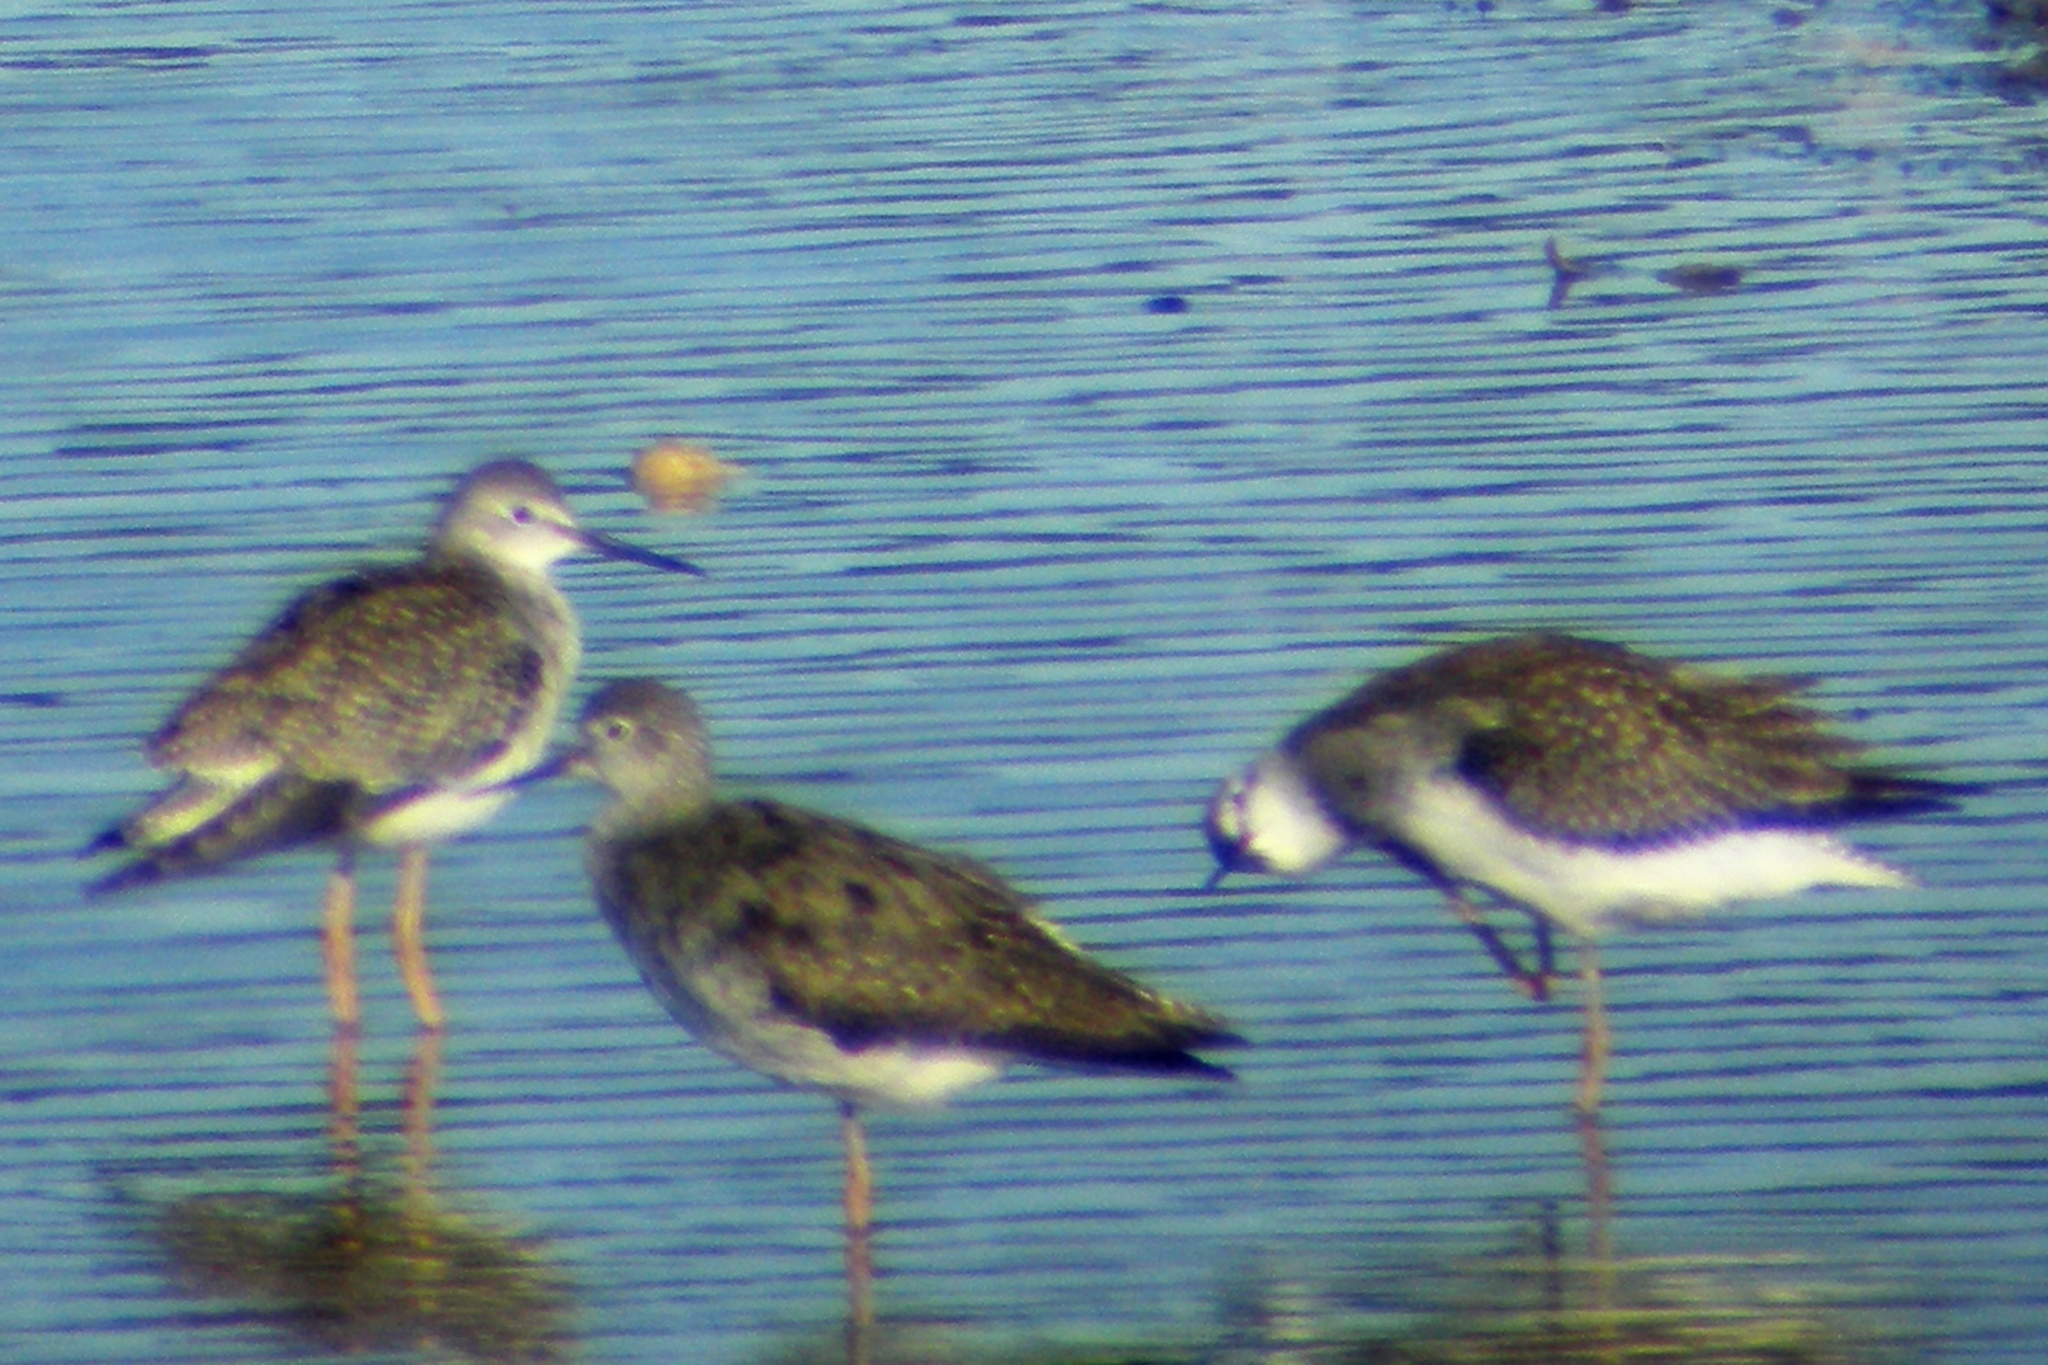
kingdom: Animalia
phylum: Chordata
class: Aves
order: Charadriiformes
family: Scolopacidae
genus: Tringa
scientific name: Tringa flavipes
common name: Lesser yellowlegs
